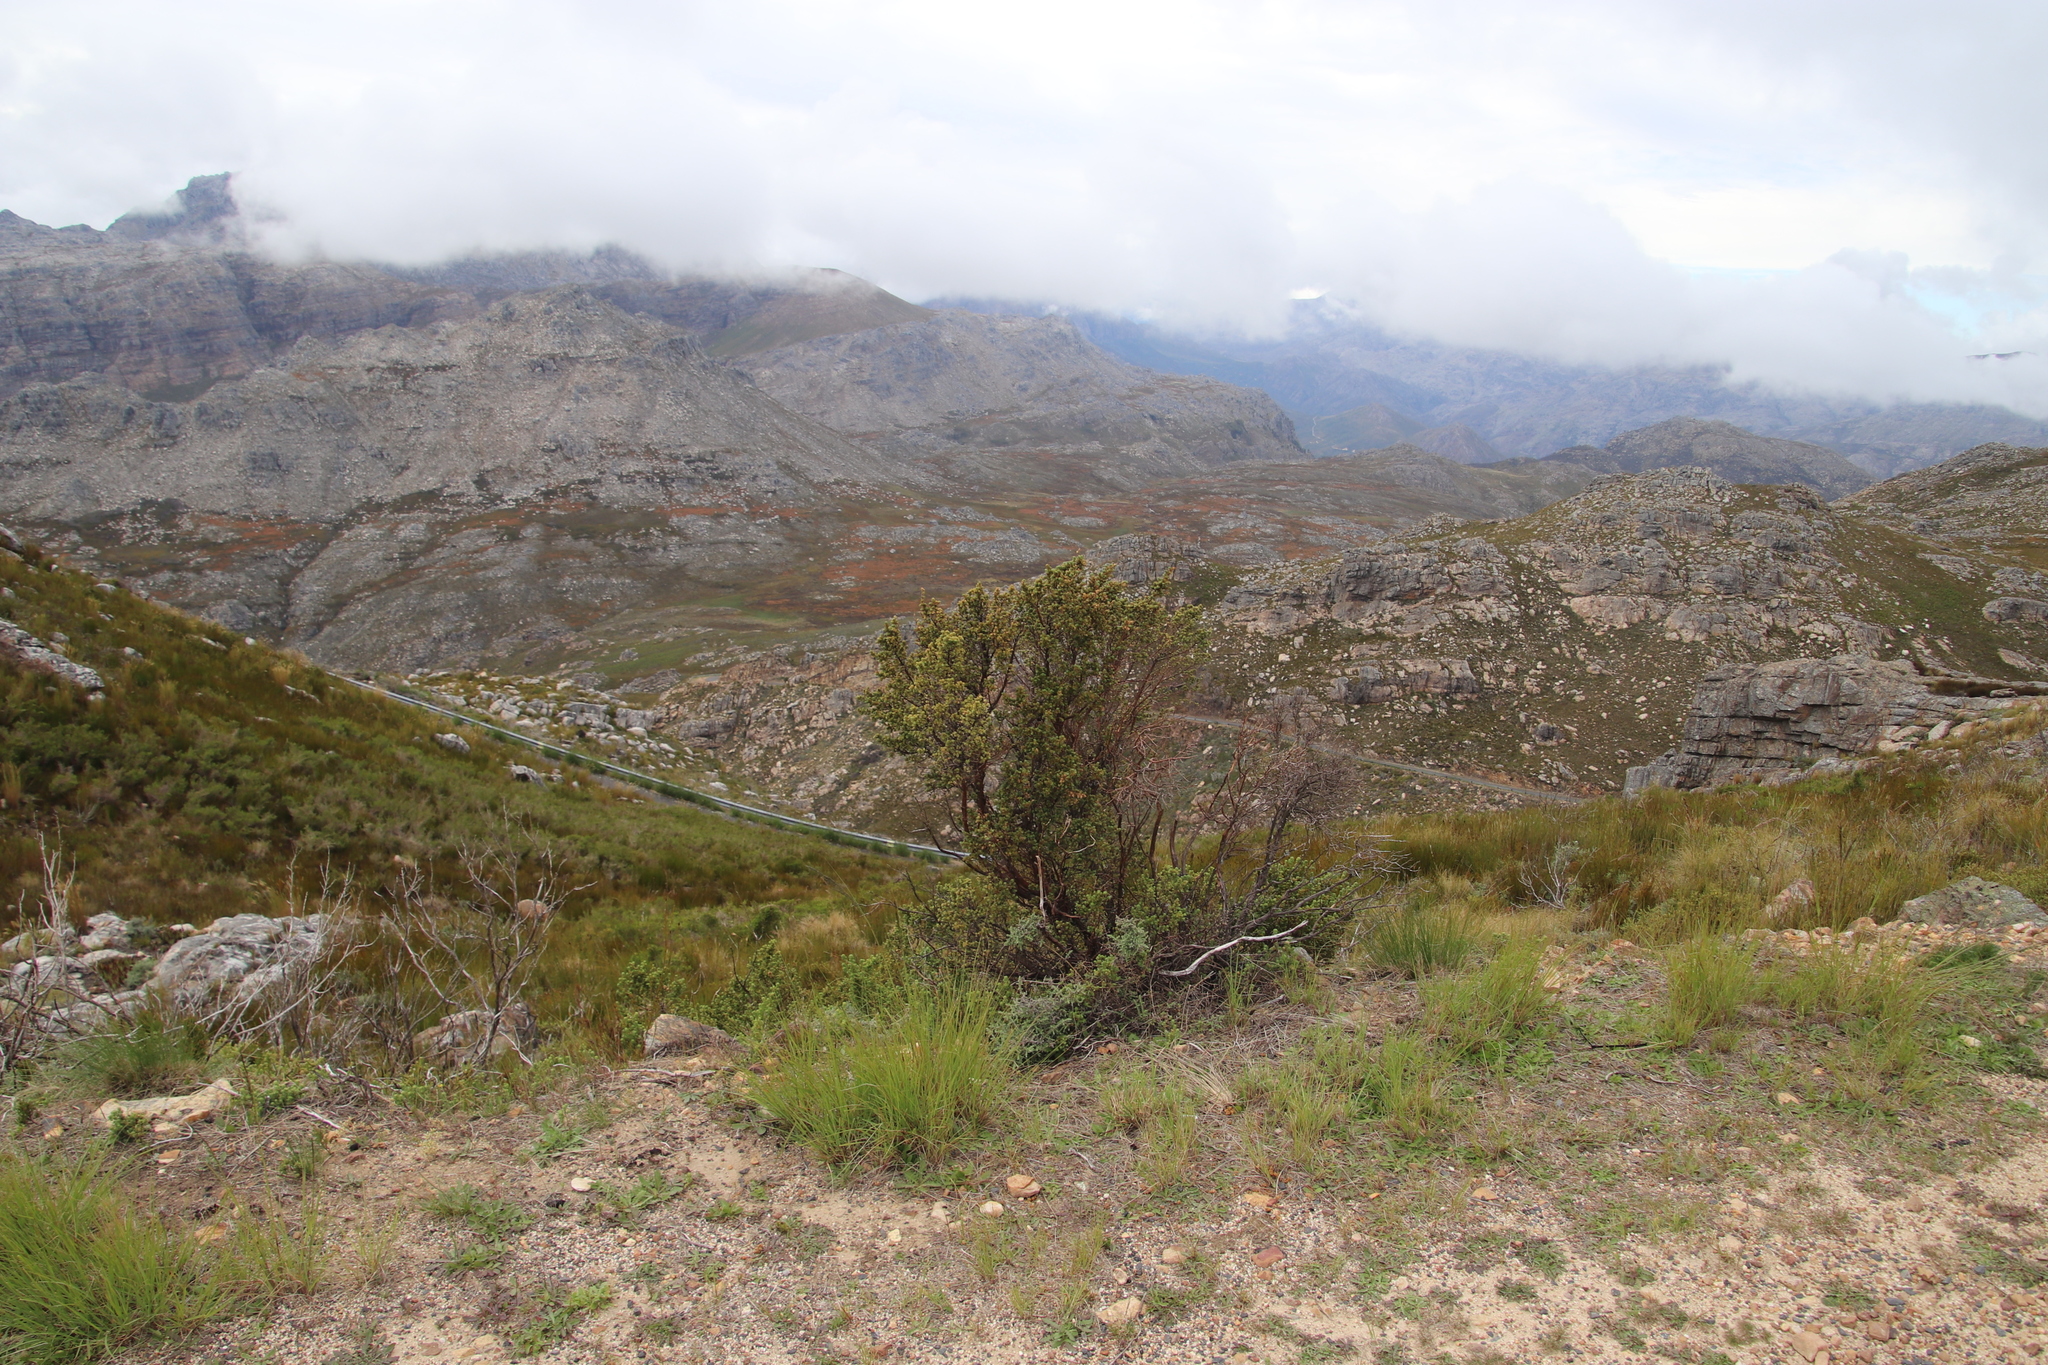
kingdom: Plantae
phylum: Tracheophyta
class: Magnoliopsida
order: Rosales
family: Rosaceae
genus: Cliffortia
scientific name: Cliffortia polygonifolia
